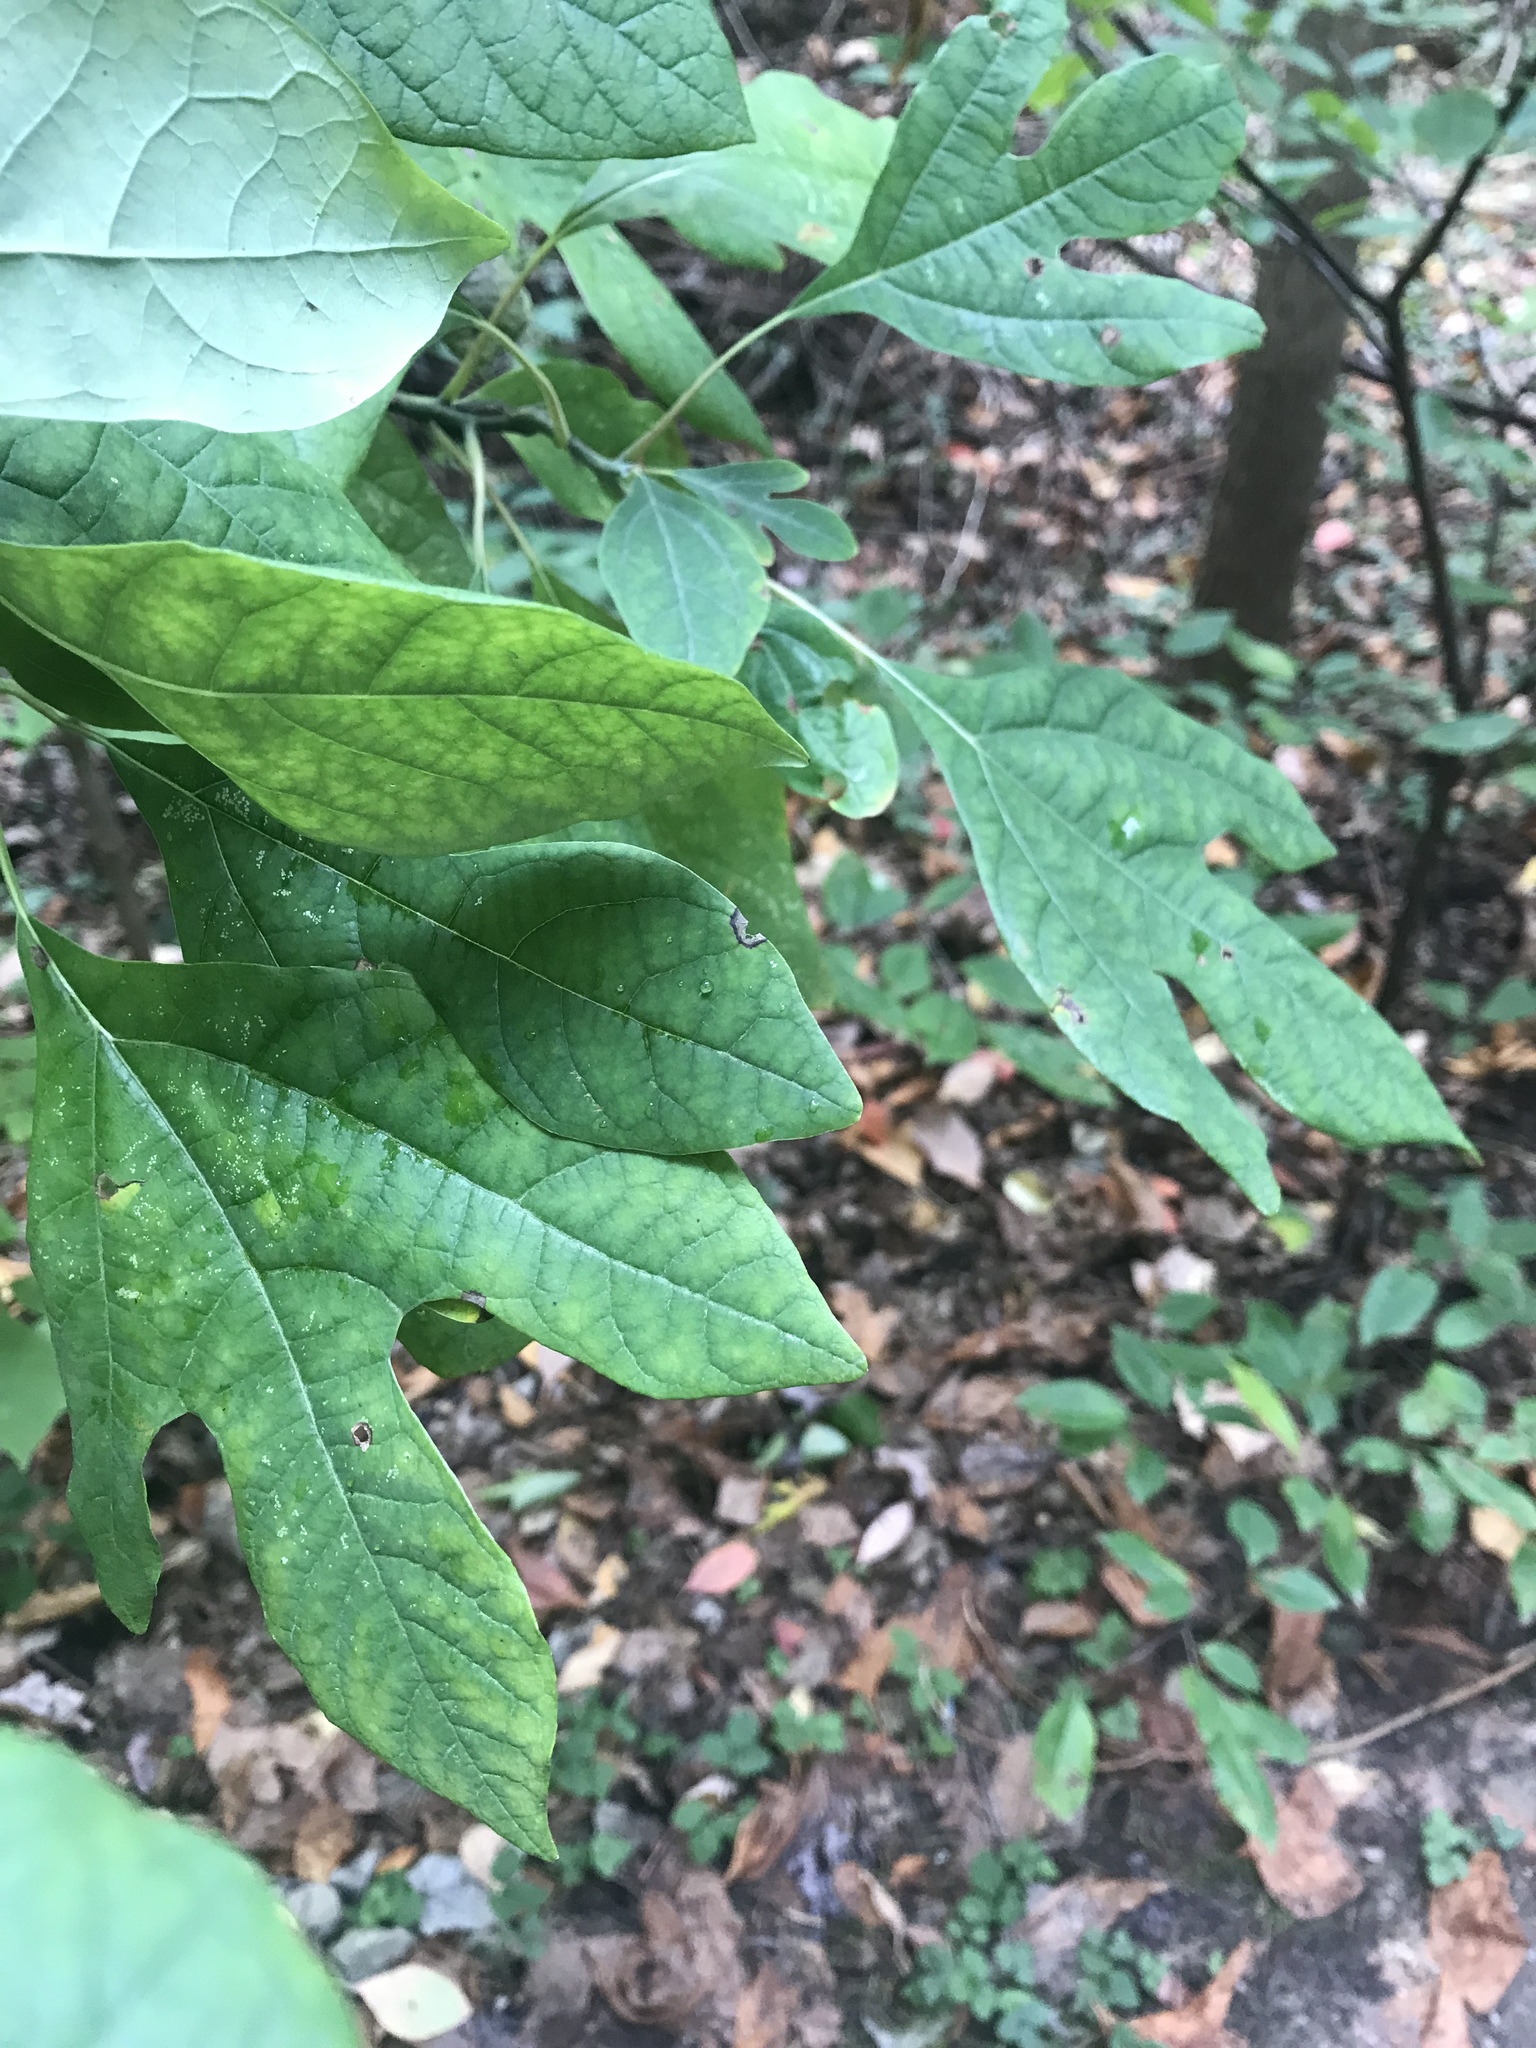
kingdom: Plantae
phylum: Tracheophyta
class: Magnoliopsida
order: Laurales
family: Lauraceae
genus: Sassafras
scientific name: Sassafras albidum
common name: Sassafras
